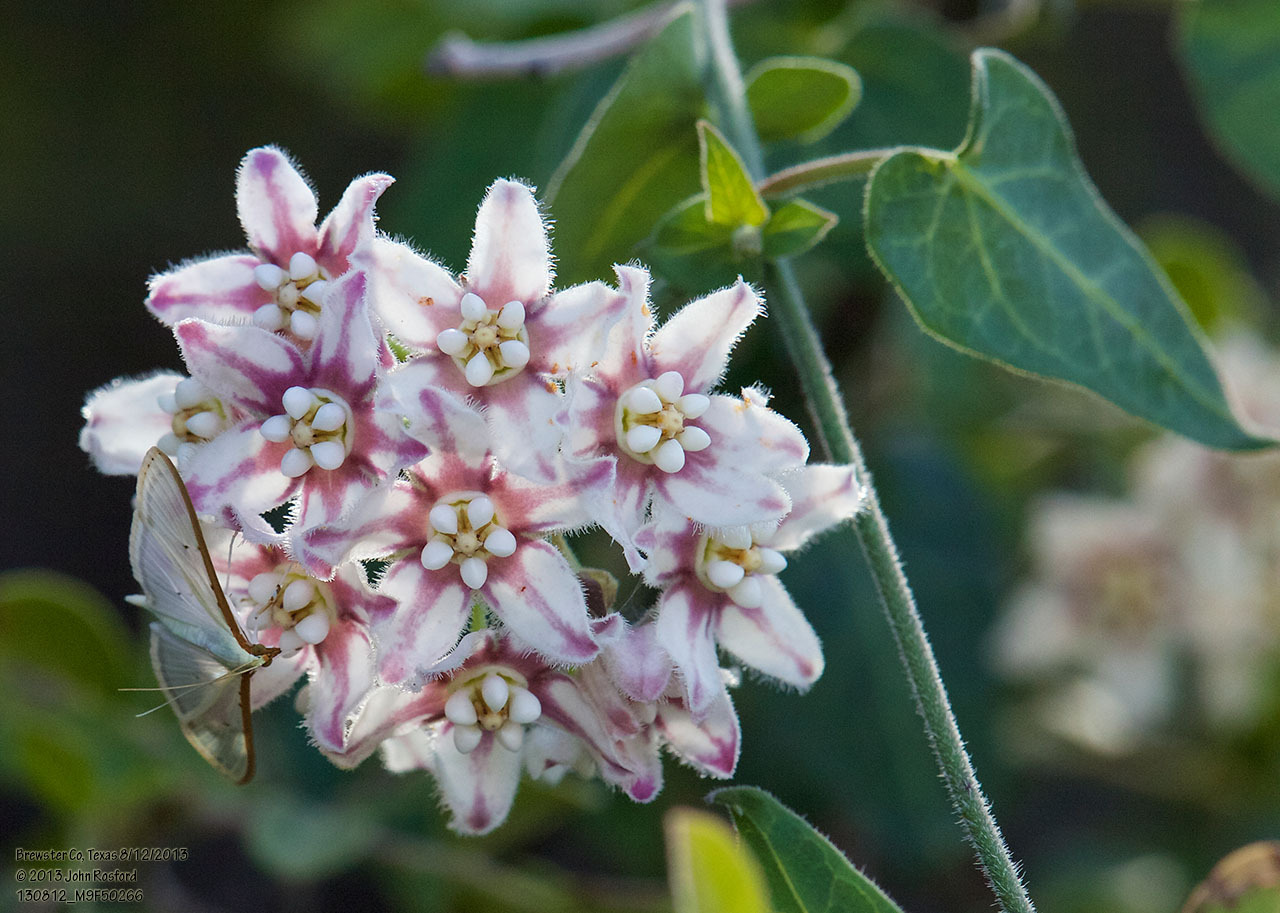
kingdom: Plantae
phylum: Tracheophyta
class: Magnoliopsida
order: Gentianales
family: Apocynaceae
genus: Funastrum
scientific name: Funastrum torreyi
